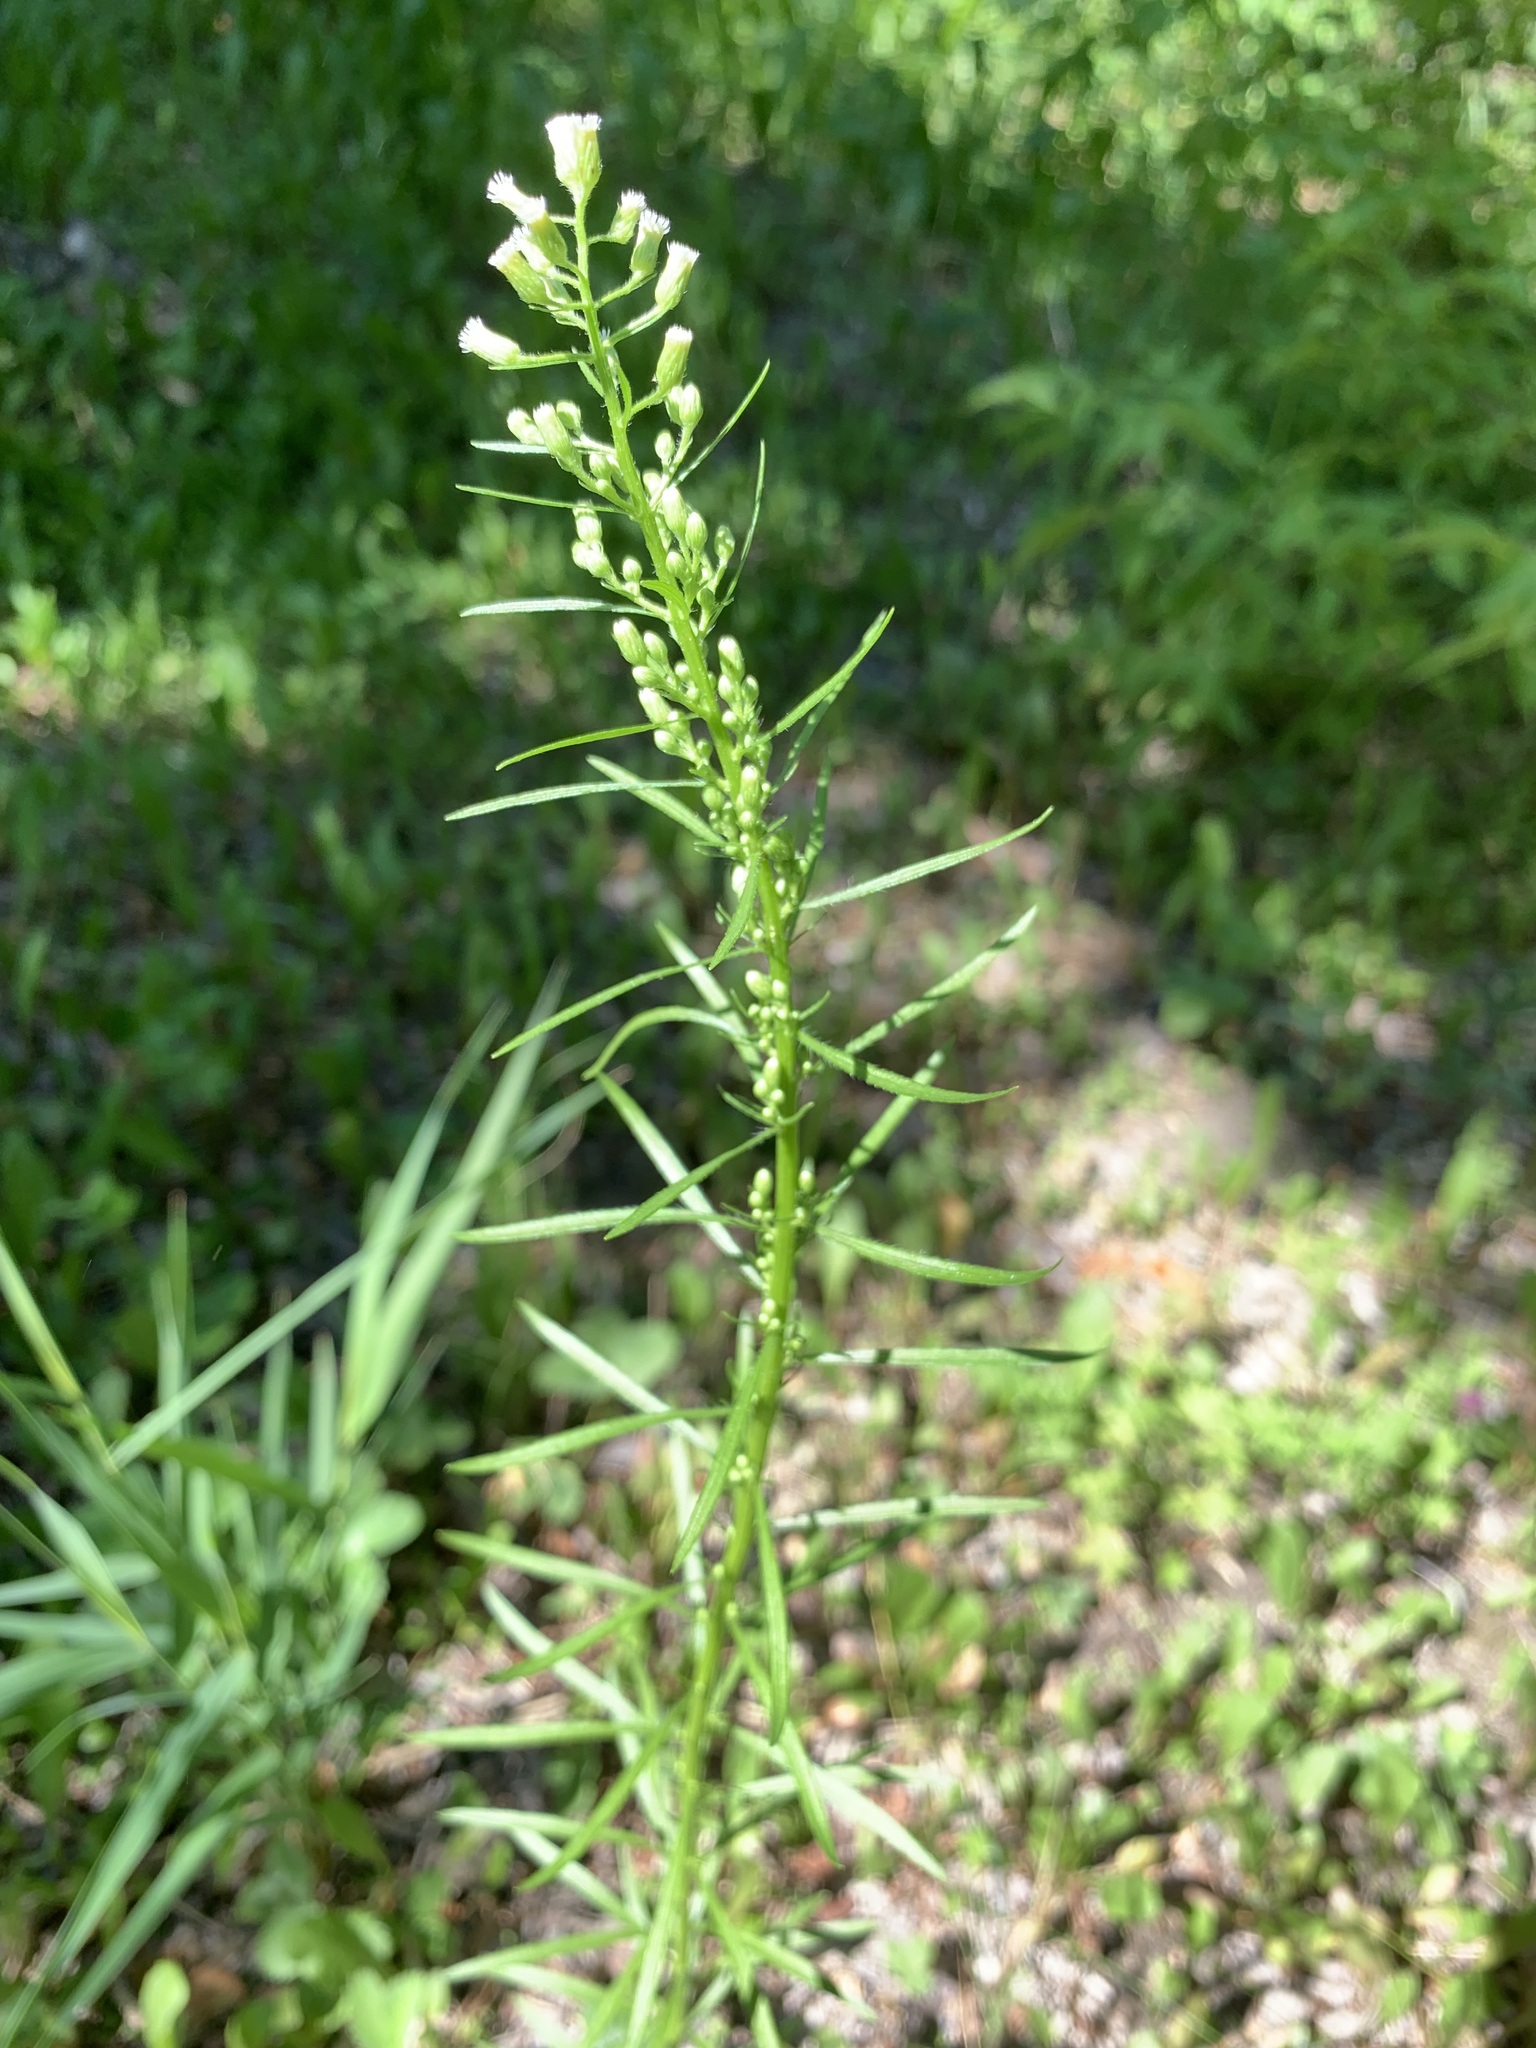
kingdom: Plantae
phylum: Tracheophyta
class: Magnoliopsida
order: Asterales
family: Asteraceae
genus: Erigeron
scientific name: Erigeron canadensis
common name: Canadian fleabane
